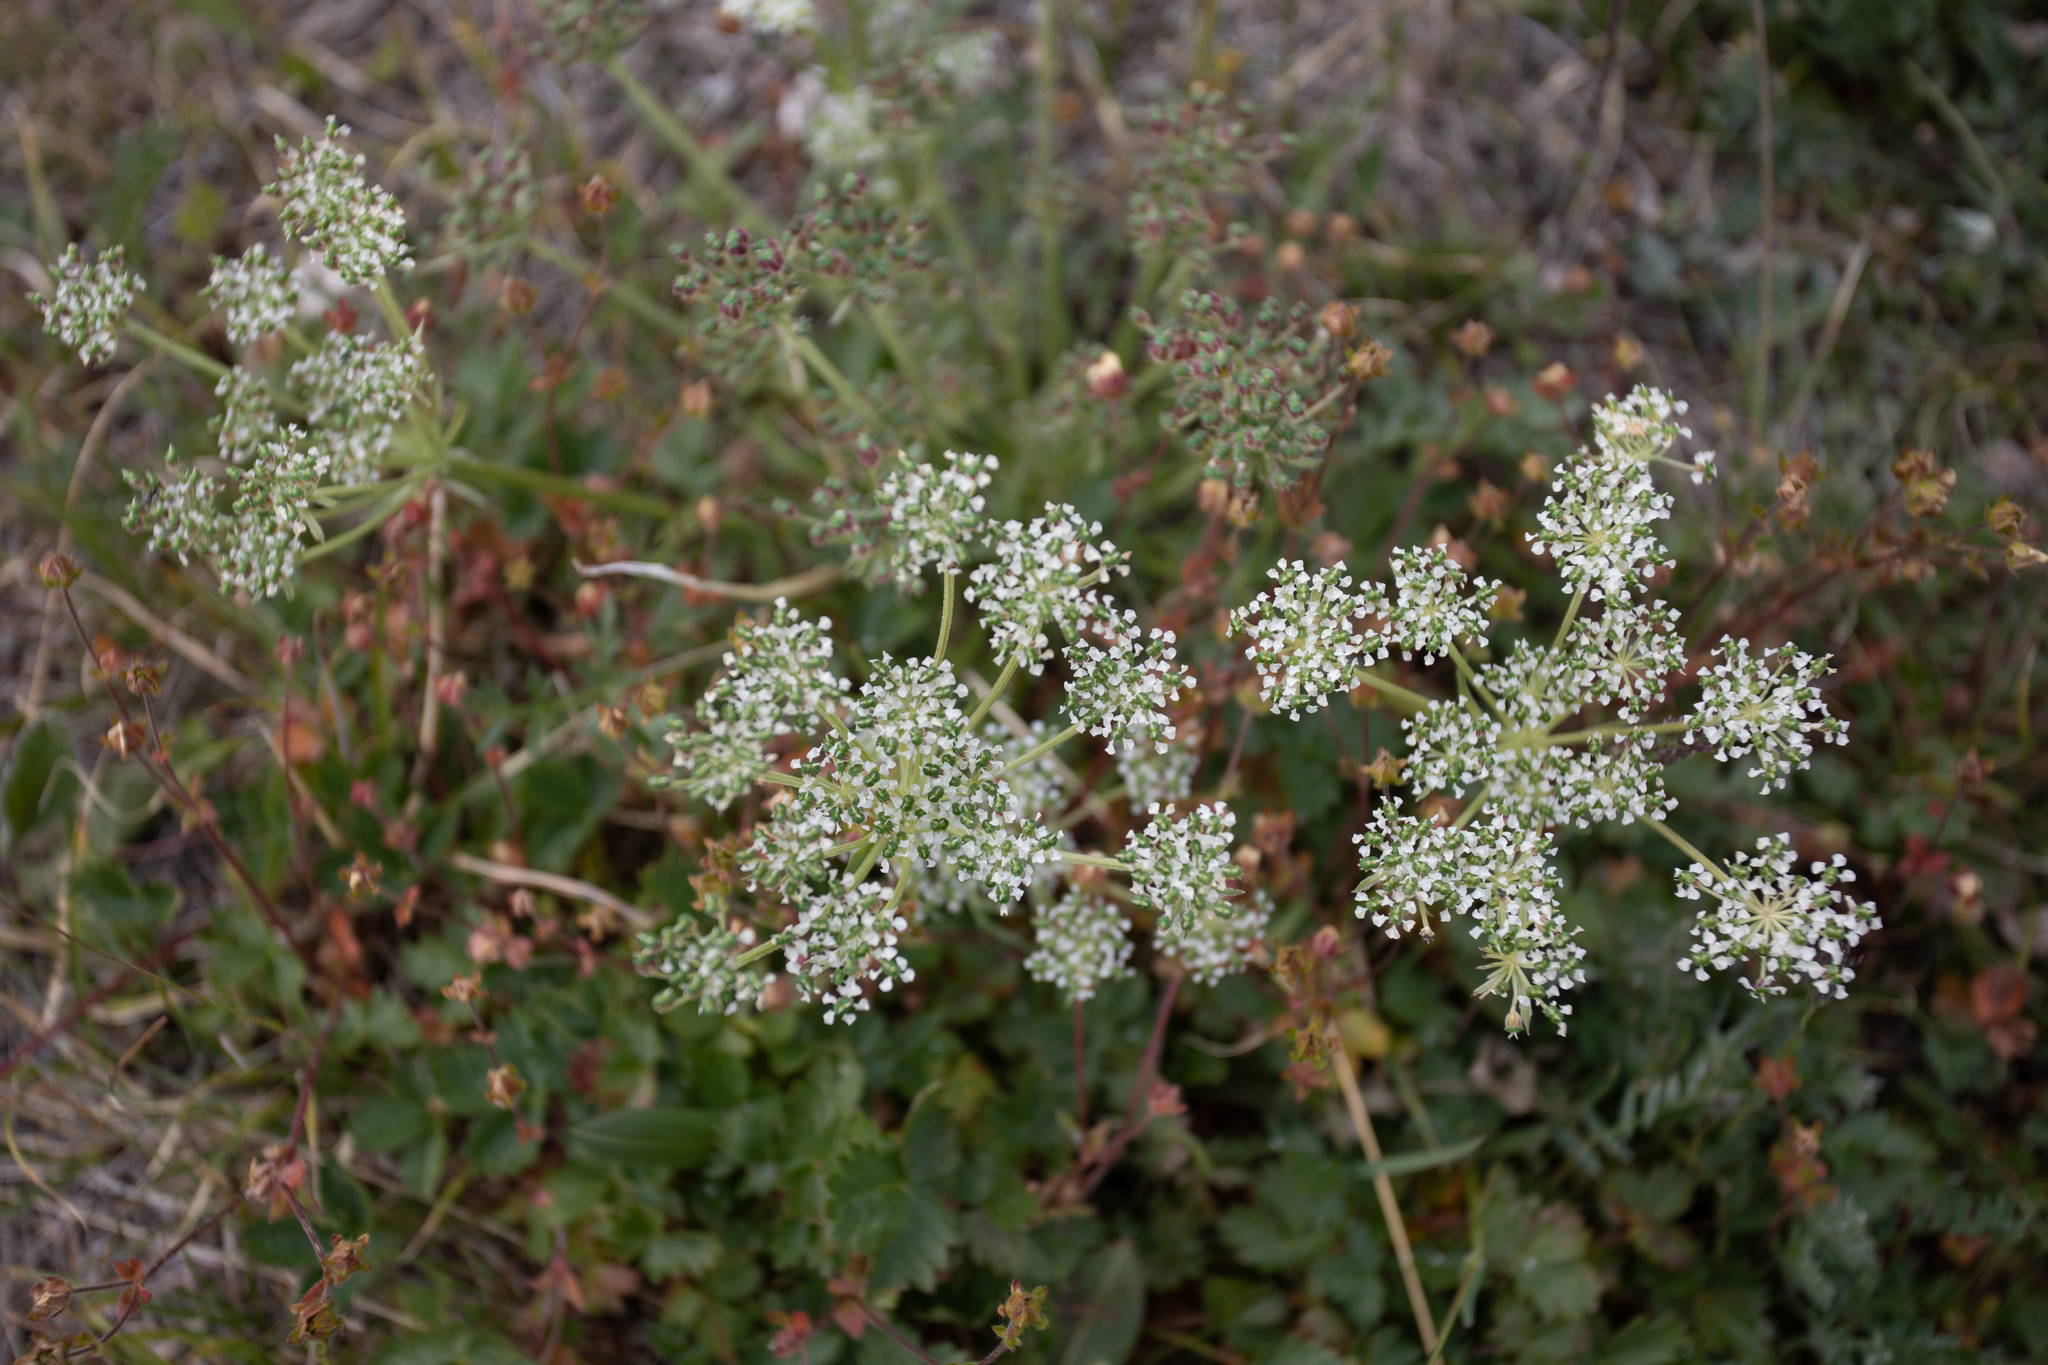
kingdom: Plantae
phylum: Tracheophyta
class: Magnoliopsida
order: Apiales
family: Apiaceae
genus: Kitagawia
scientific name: Kitagawia baicalensis
